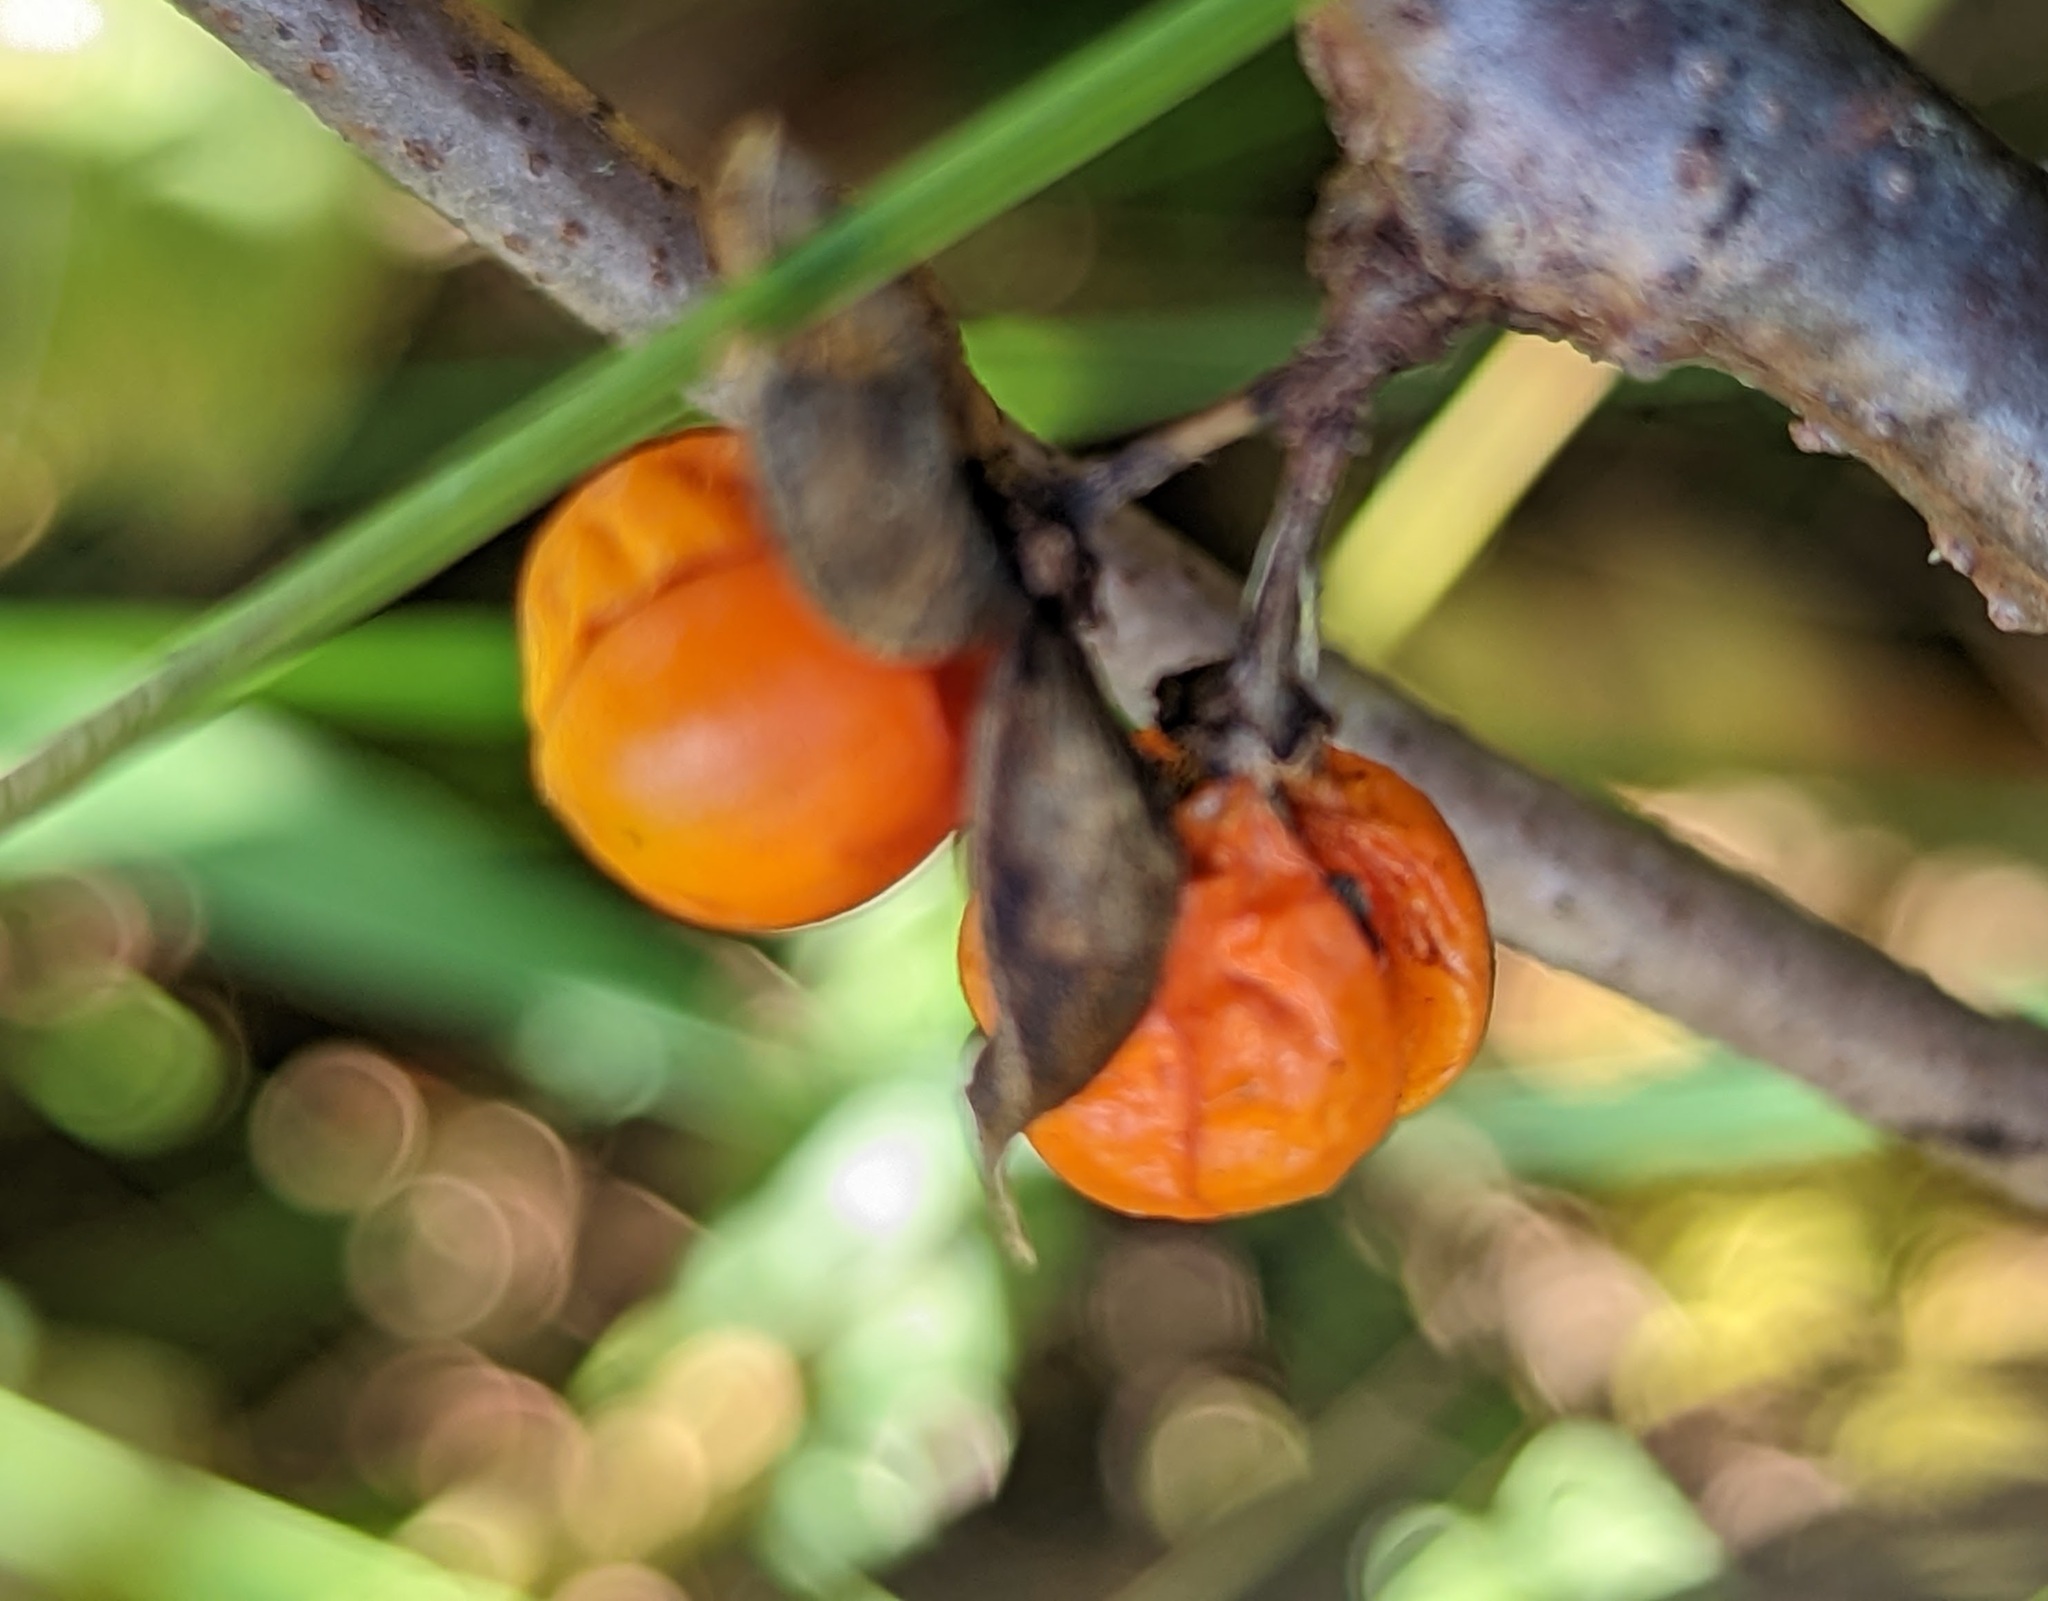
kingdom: Plantae
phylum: Tracheophyta
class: Magnoliopsida
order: Celastrales
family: Celastraceae
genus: Celastrus
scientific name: Celastrus orbiculatus
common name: Oriental bittersweet
